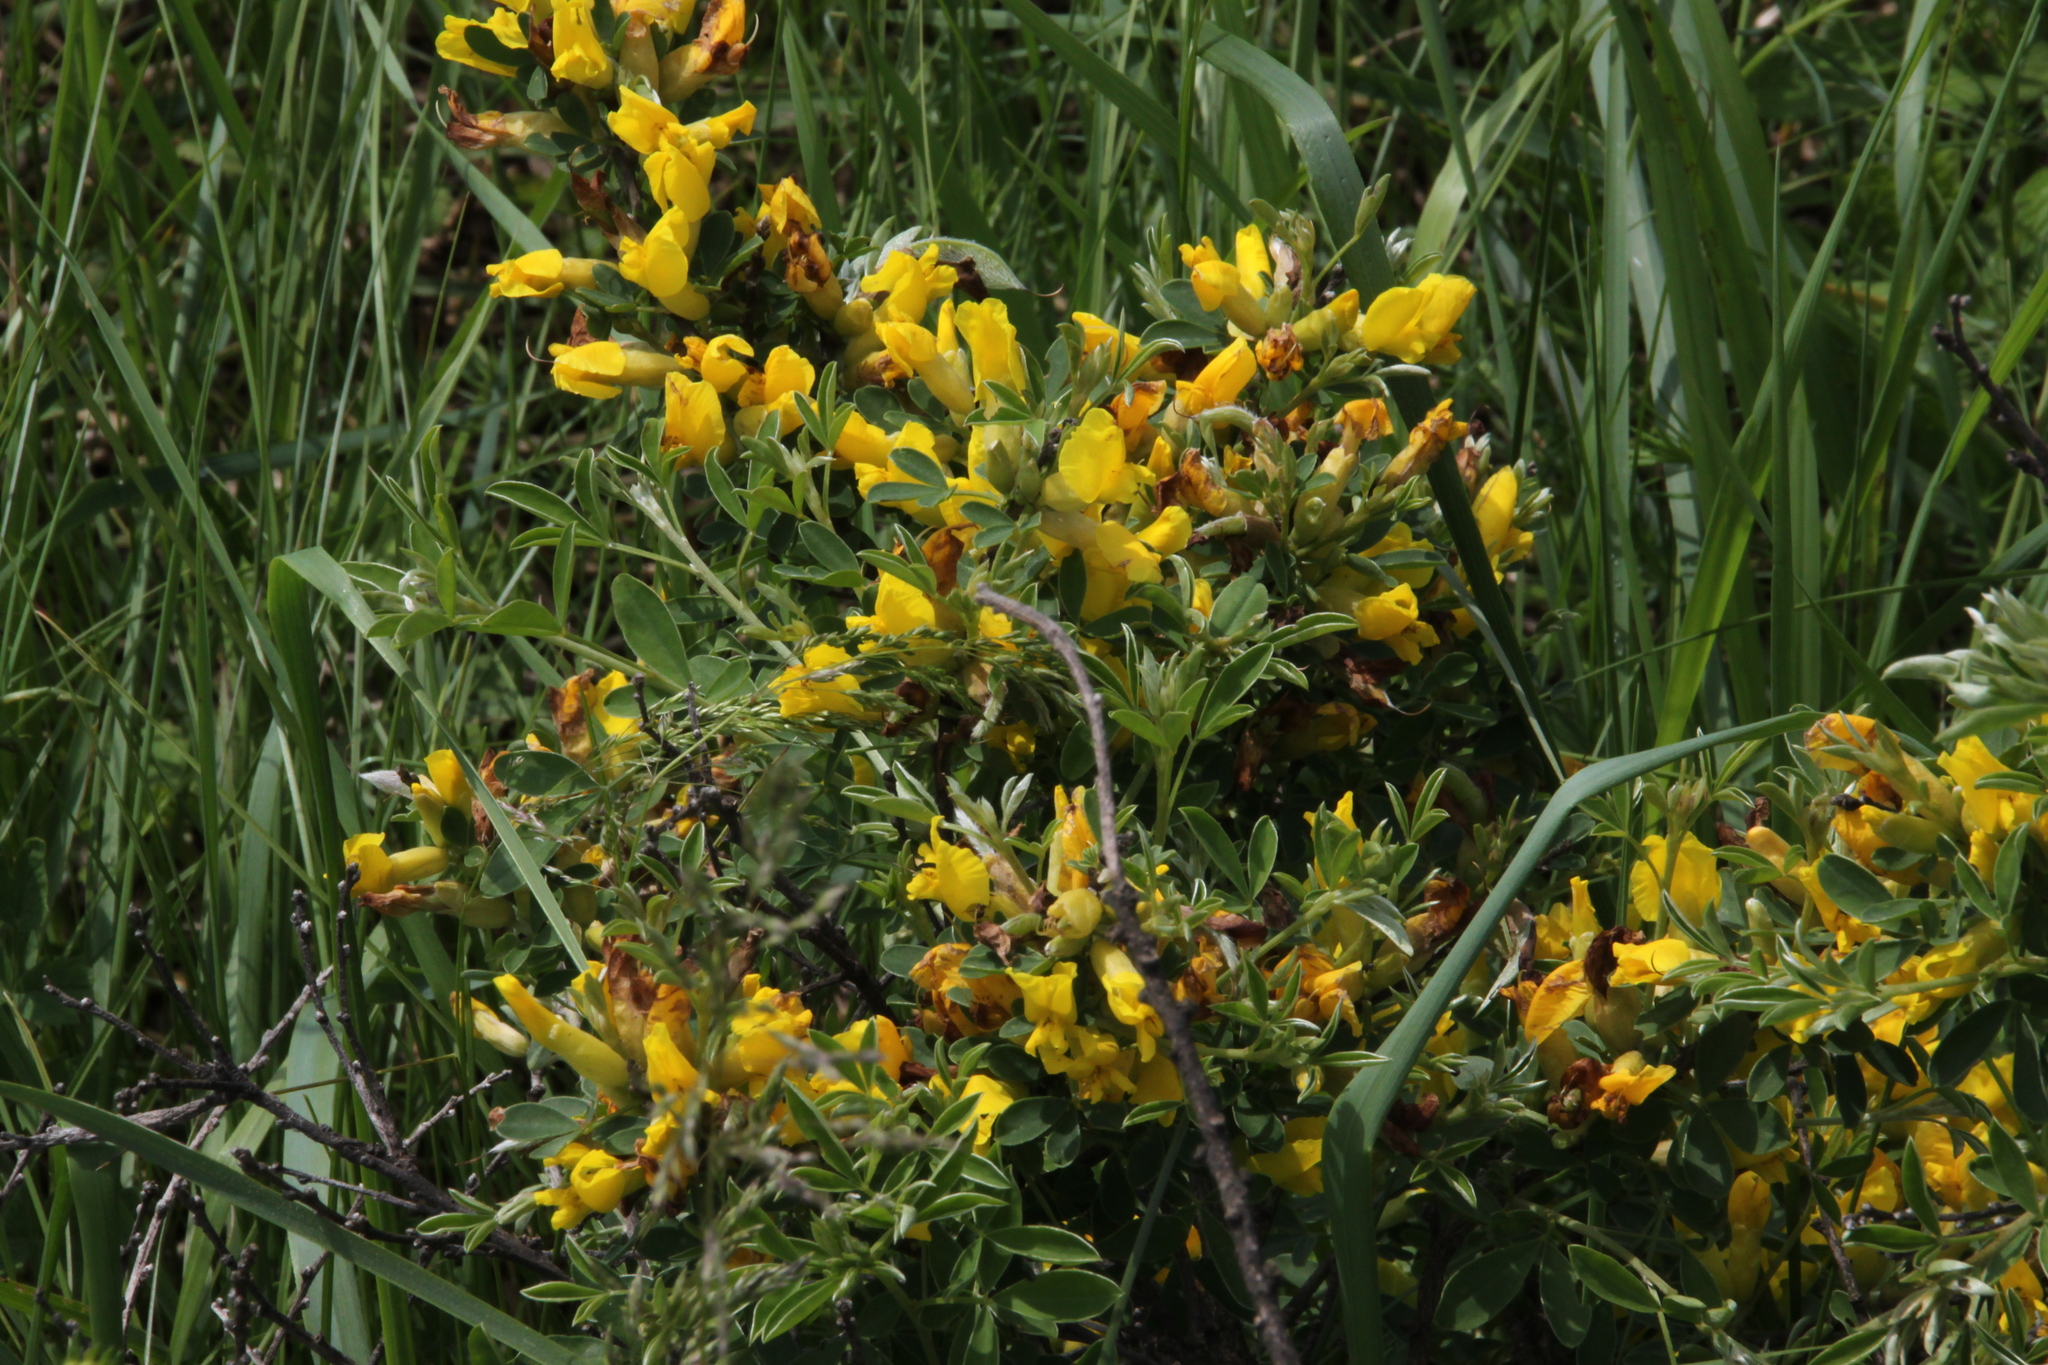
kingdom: Plantae
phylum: Tracheophyta
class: Magnoliopsida
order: Fabales
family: Fabaceae
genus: Chamaecytisus
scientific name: Chamaecytisus ruthenicus
